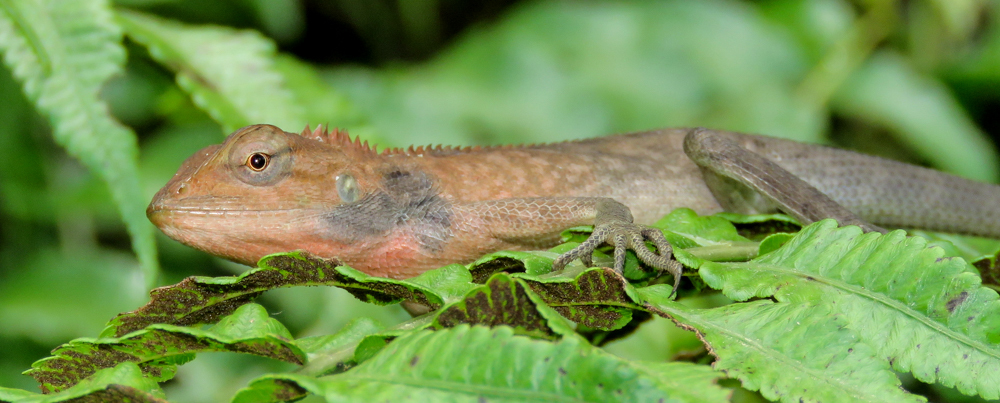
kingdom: Animalia
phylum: Chordata
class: Squamata
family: Agamidae
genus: Calotes
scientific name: Calotes versicolor
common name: Oriental garden lizard
